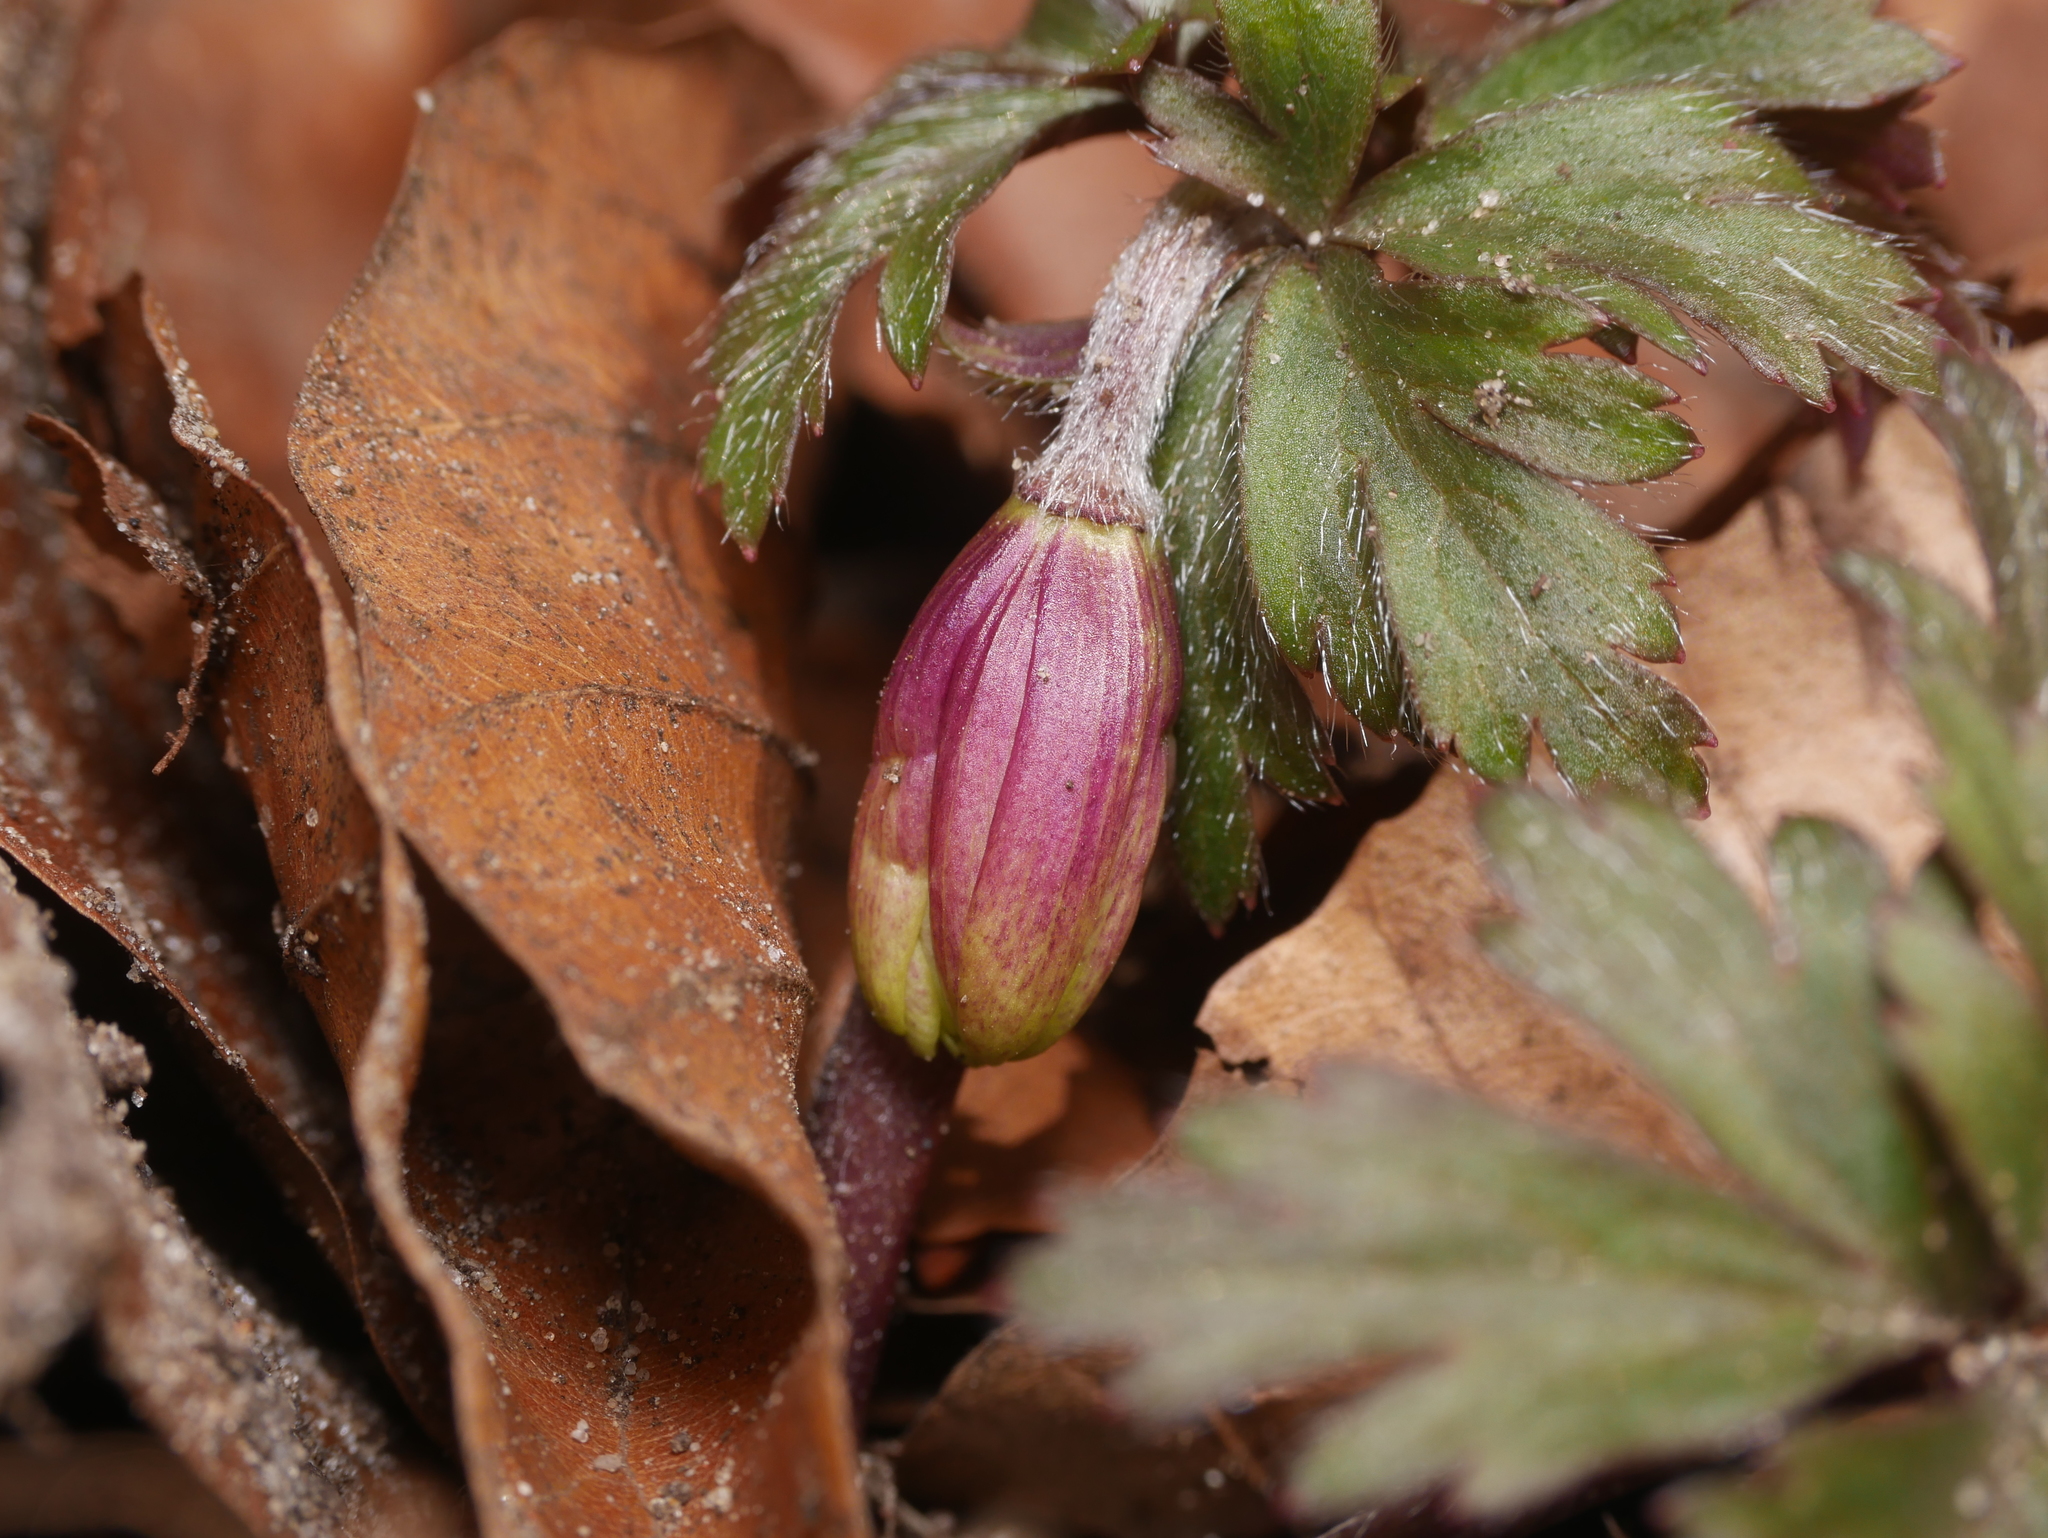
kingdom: Plantae
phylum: Tracheophyta
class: Magnoliopsida
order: Ranunculales
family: Ranunculaceae
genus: Anemone
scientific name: Anemone nemorosa
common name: Wood anemone
